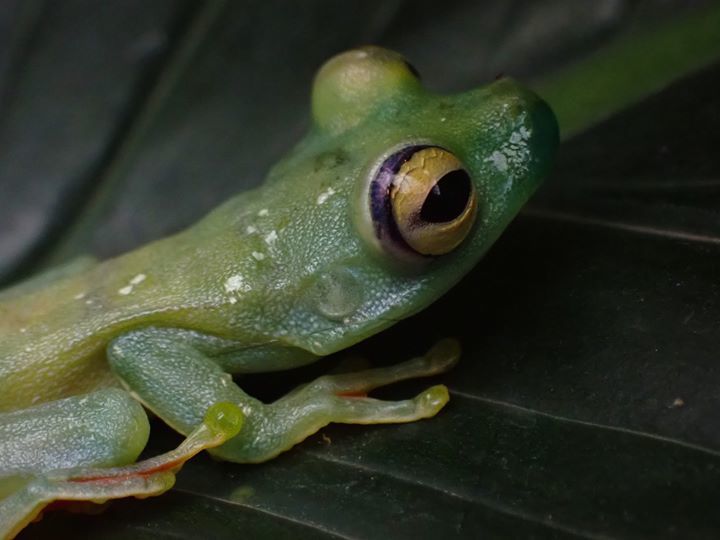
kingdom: Animalia
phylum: Chordata
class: Amphibia
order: Anura
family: Hylidae
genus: Boana
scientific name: Boana rufitela
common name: Canal zone treefrog
